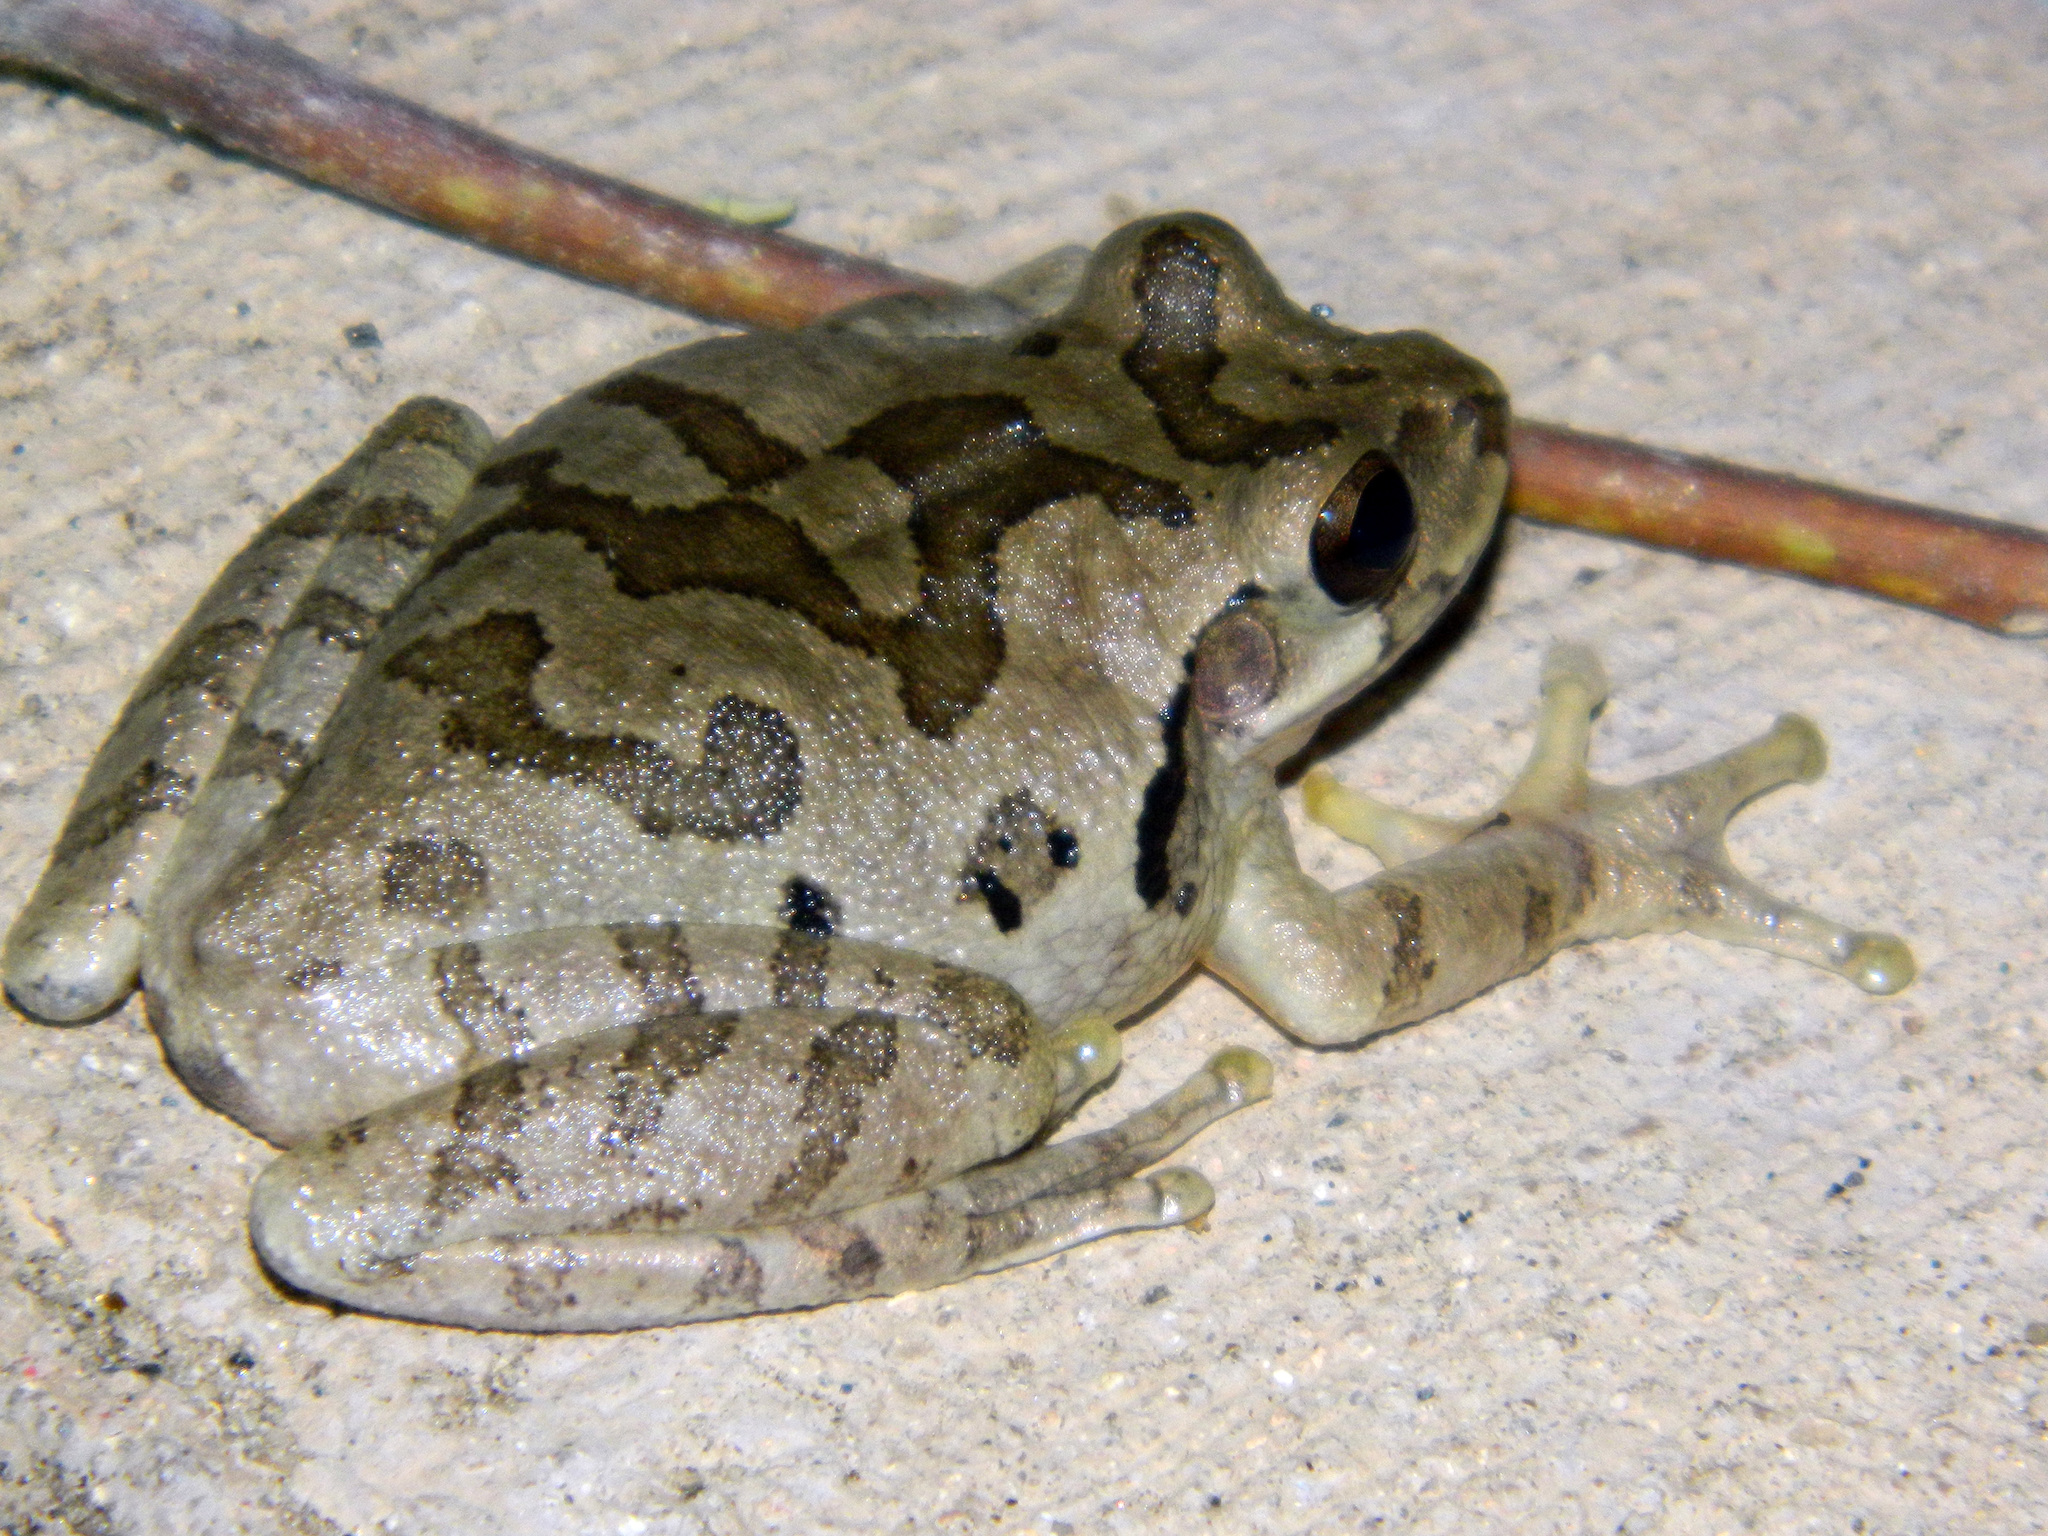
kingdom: Animalia
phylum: Chordata
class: Amphibia
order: Anura
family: Hylidae
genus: Smilisca
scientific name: Smilisca baudinii
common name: Mexican smilisca
